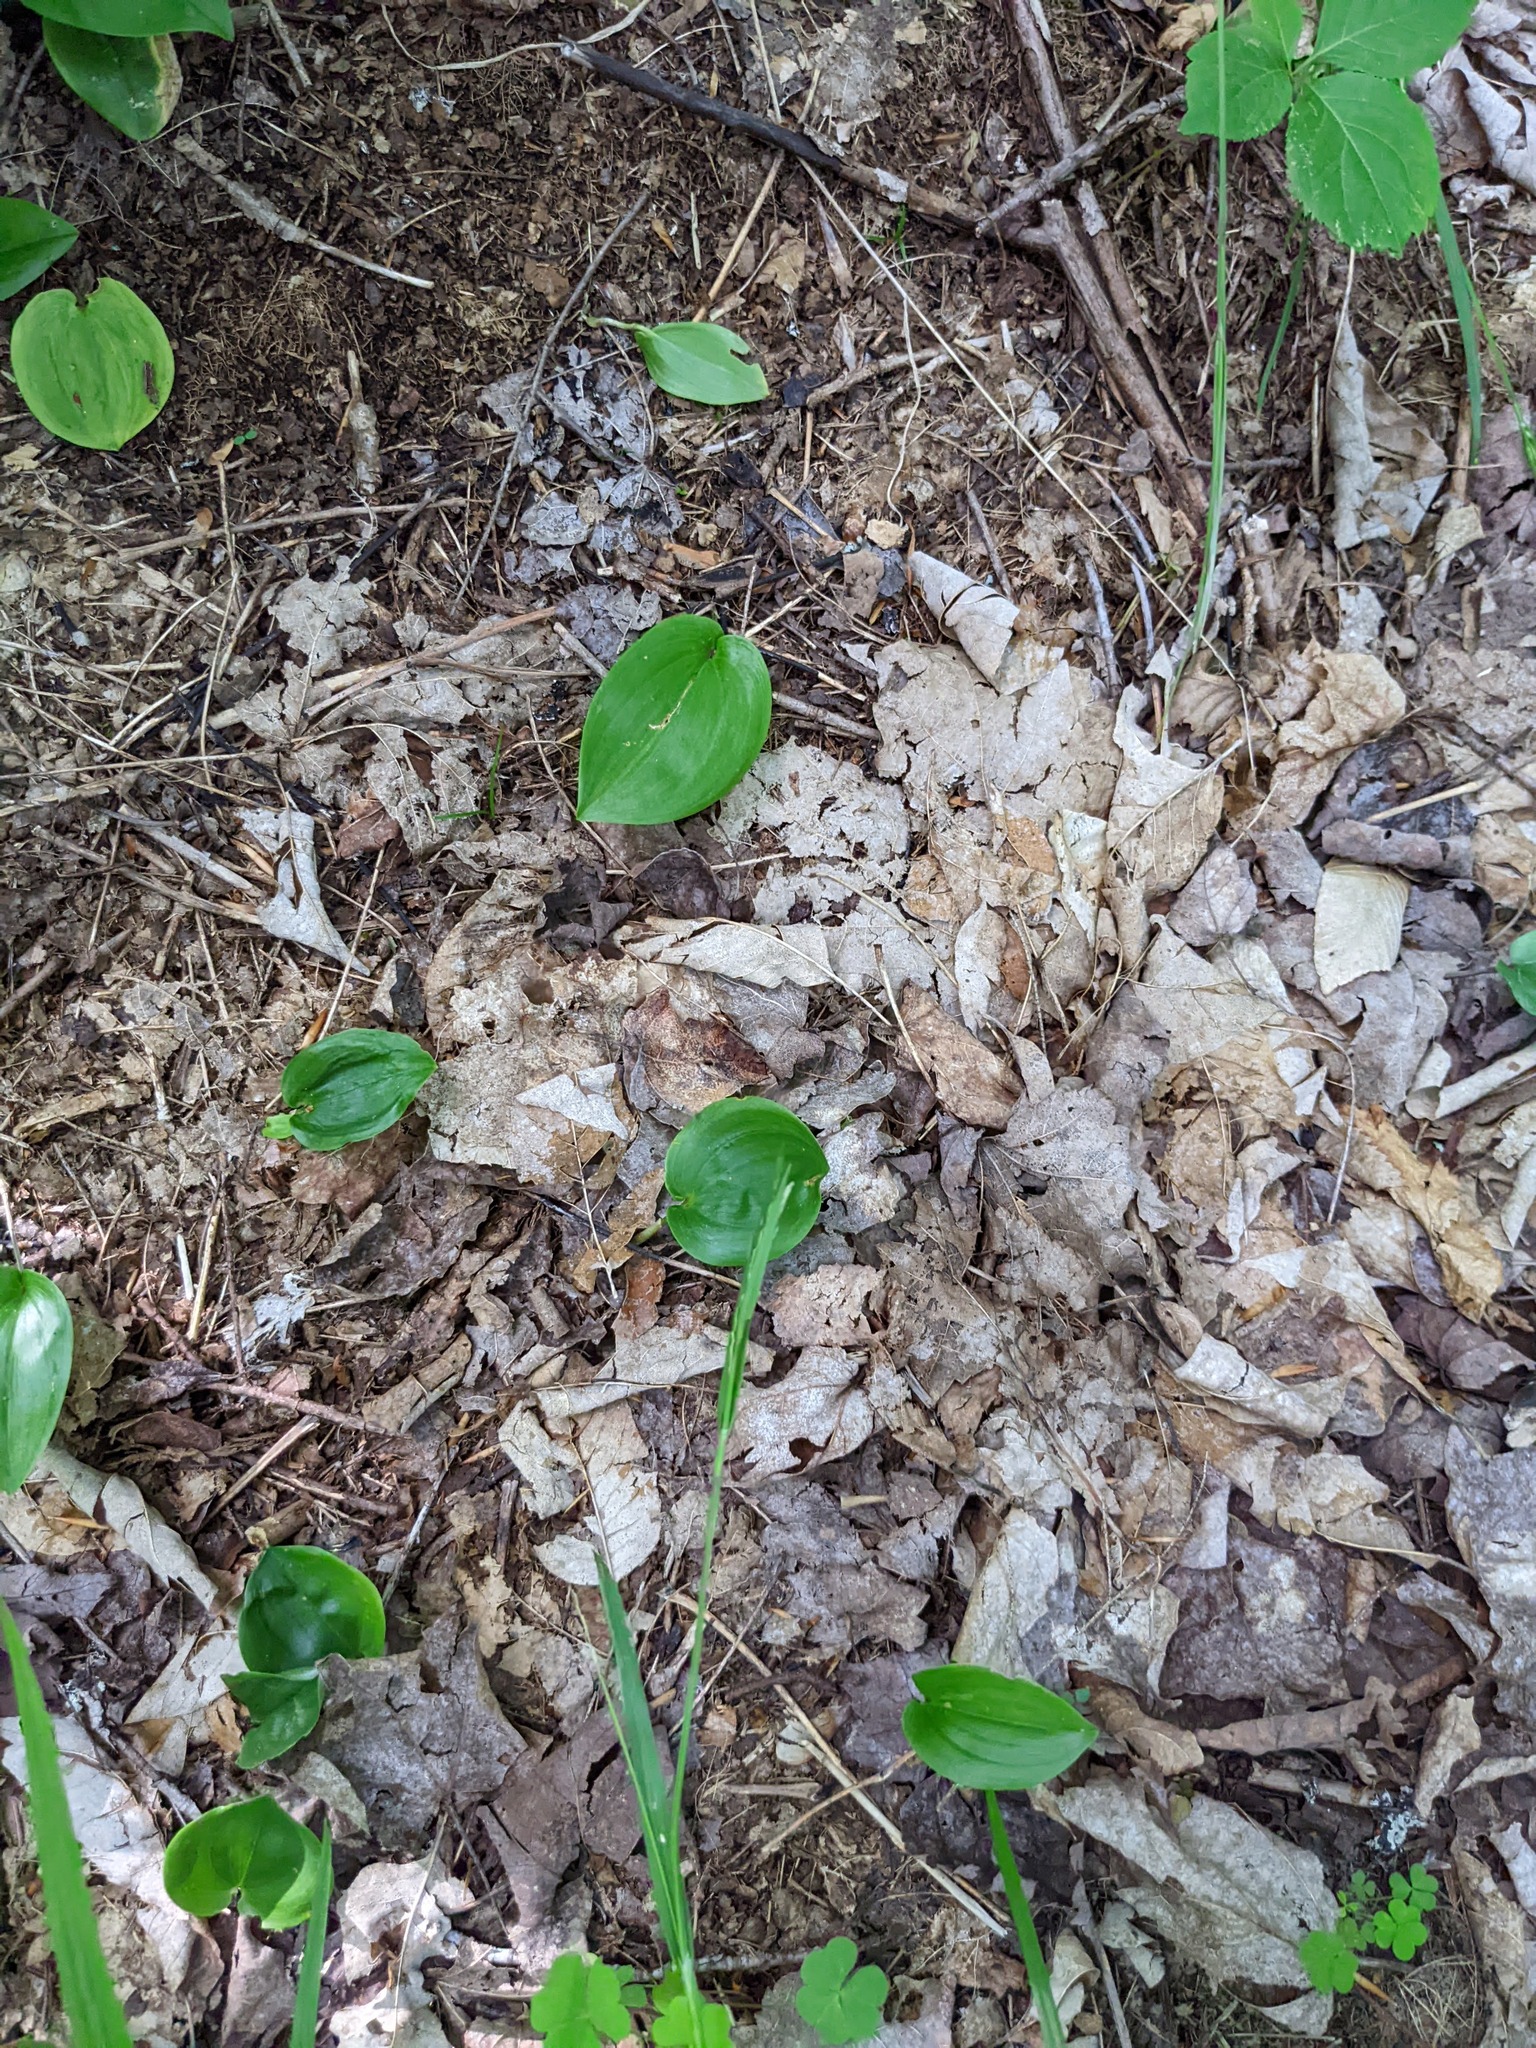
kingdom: Plantae
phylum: Tracheophyta
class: Liliopsida
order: Asparagales
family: Asparagaceae
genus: Maianthemum
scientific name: Maianthemum canadense
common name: False lily-of-the-valley
